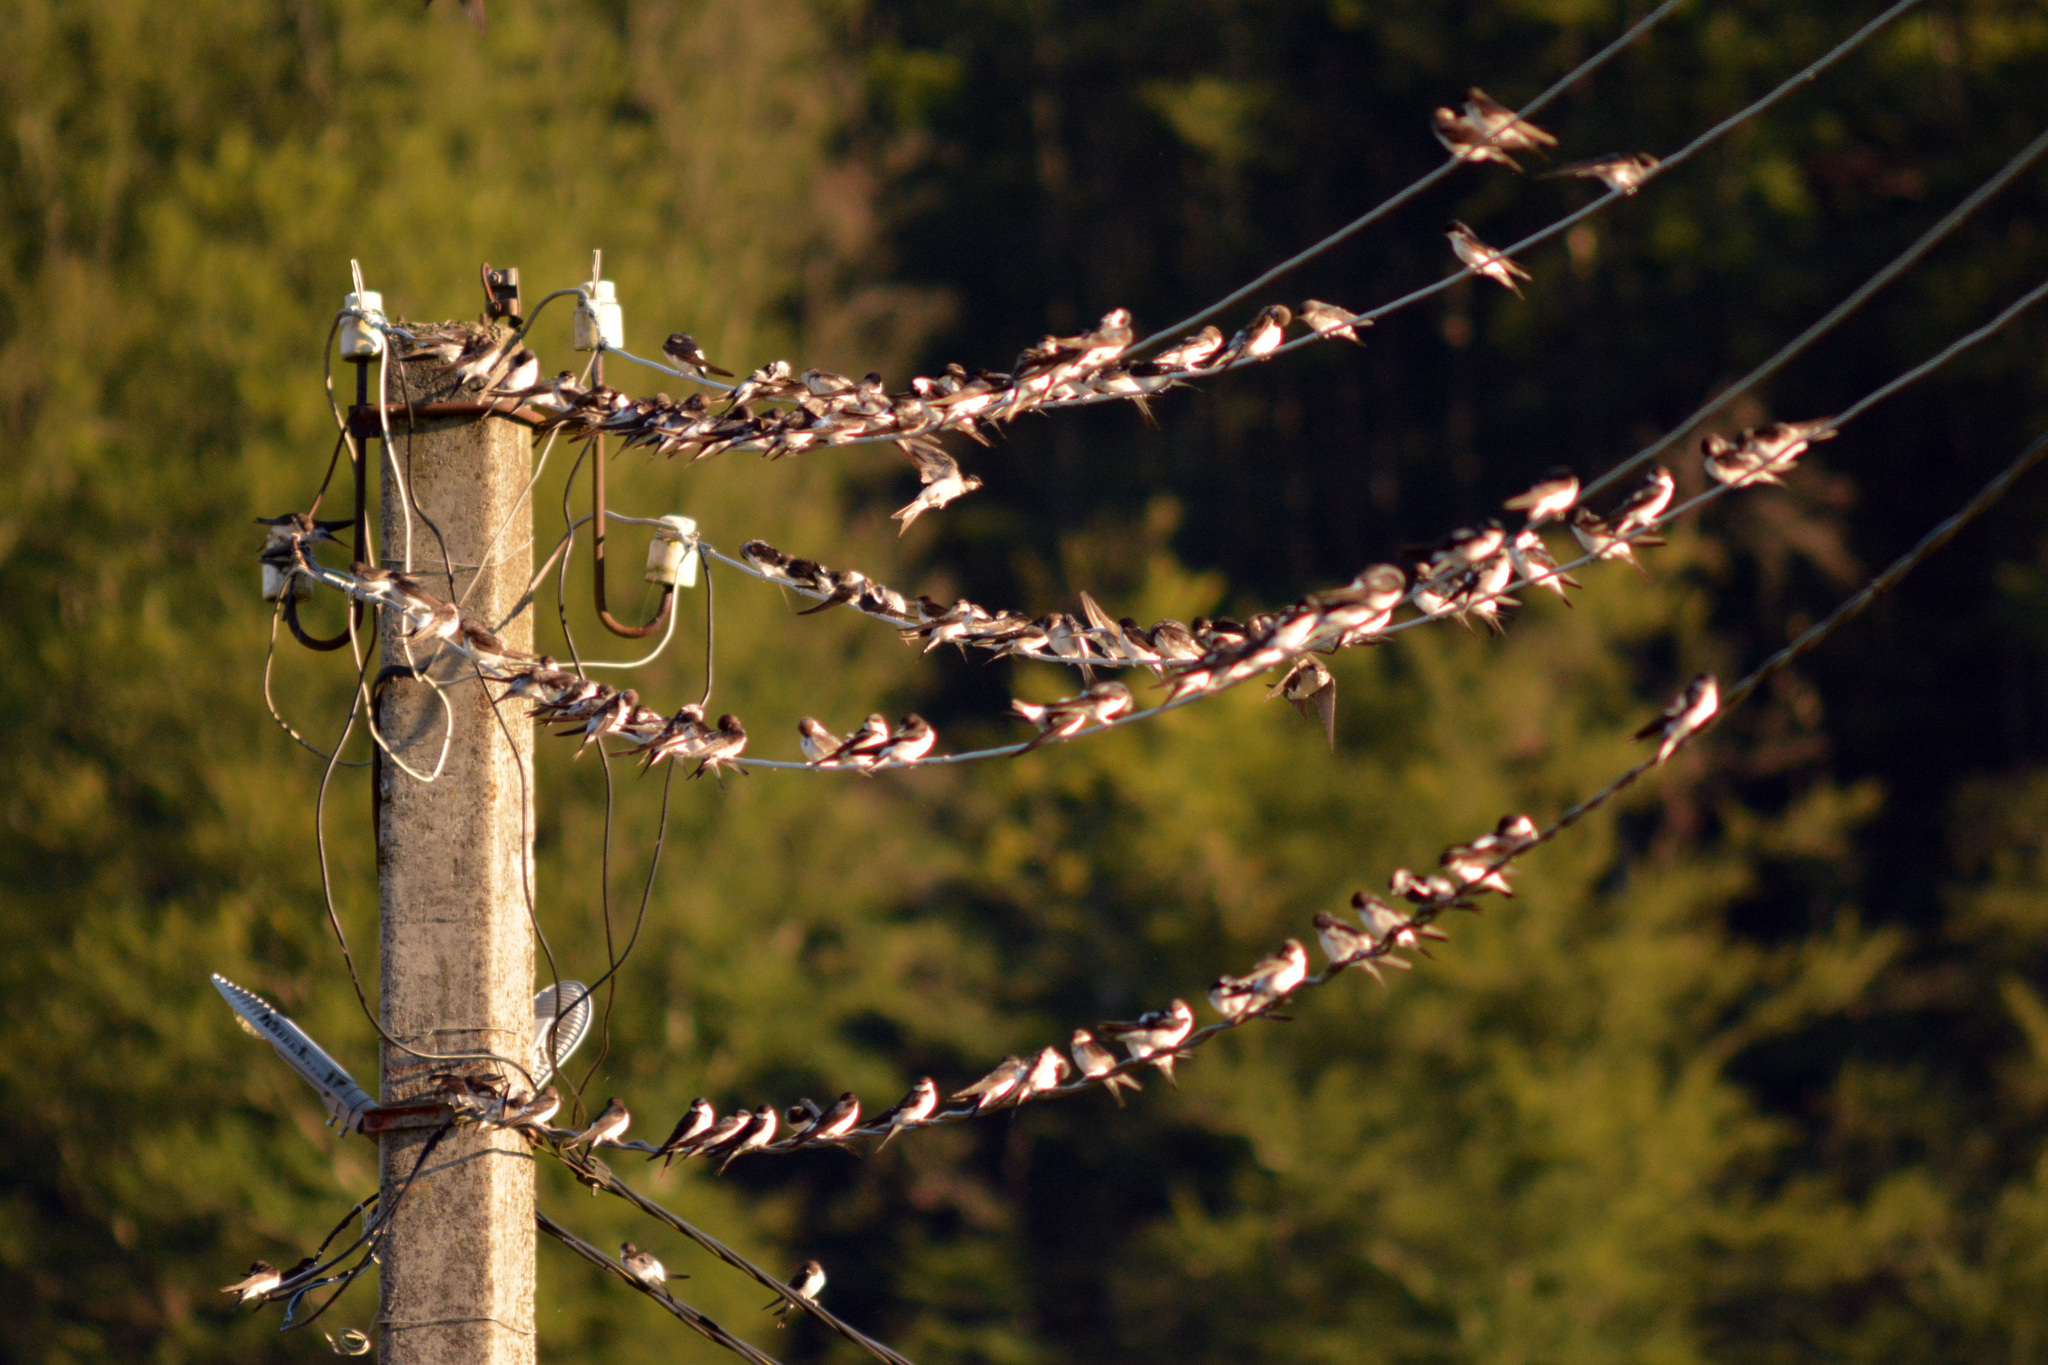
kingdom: Animalia
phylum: Chordata
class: Aves
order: Passeriformes
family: Hirundinidae
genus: Delichon
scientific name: Delichon urbicum
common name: Common house martin
